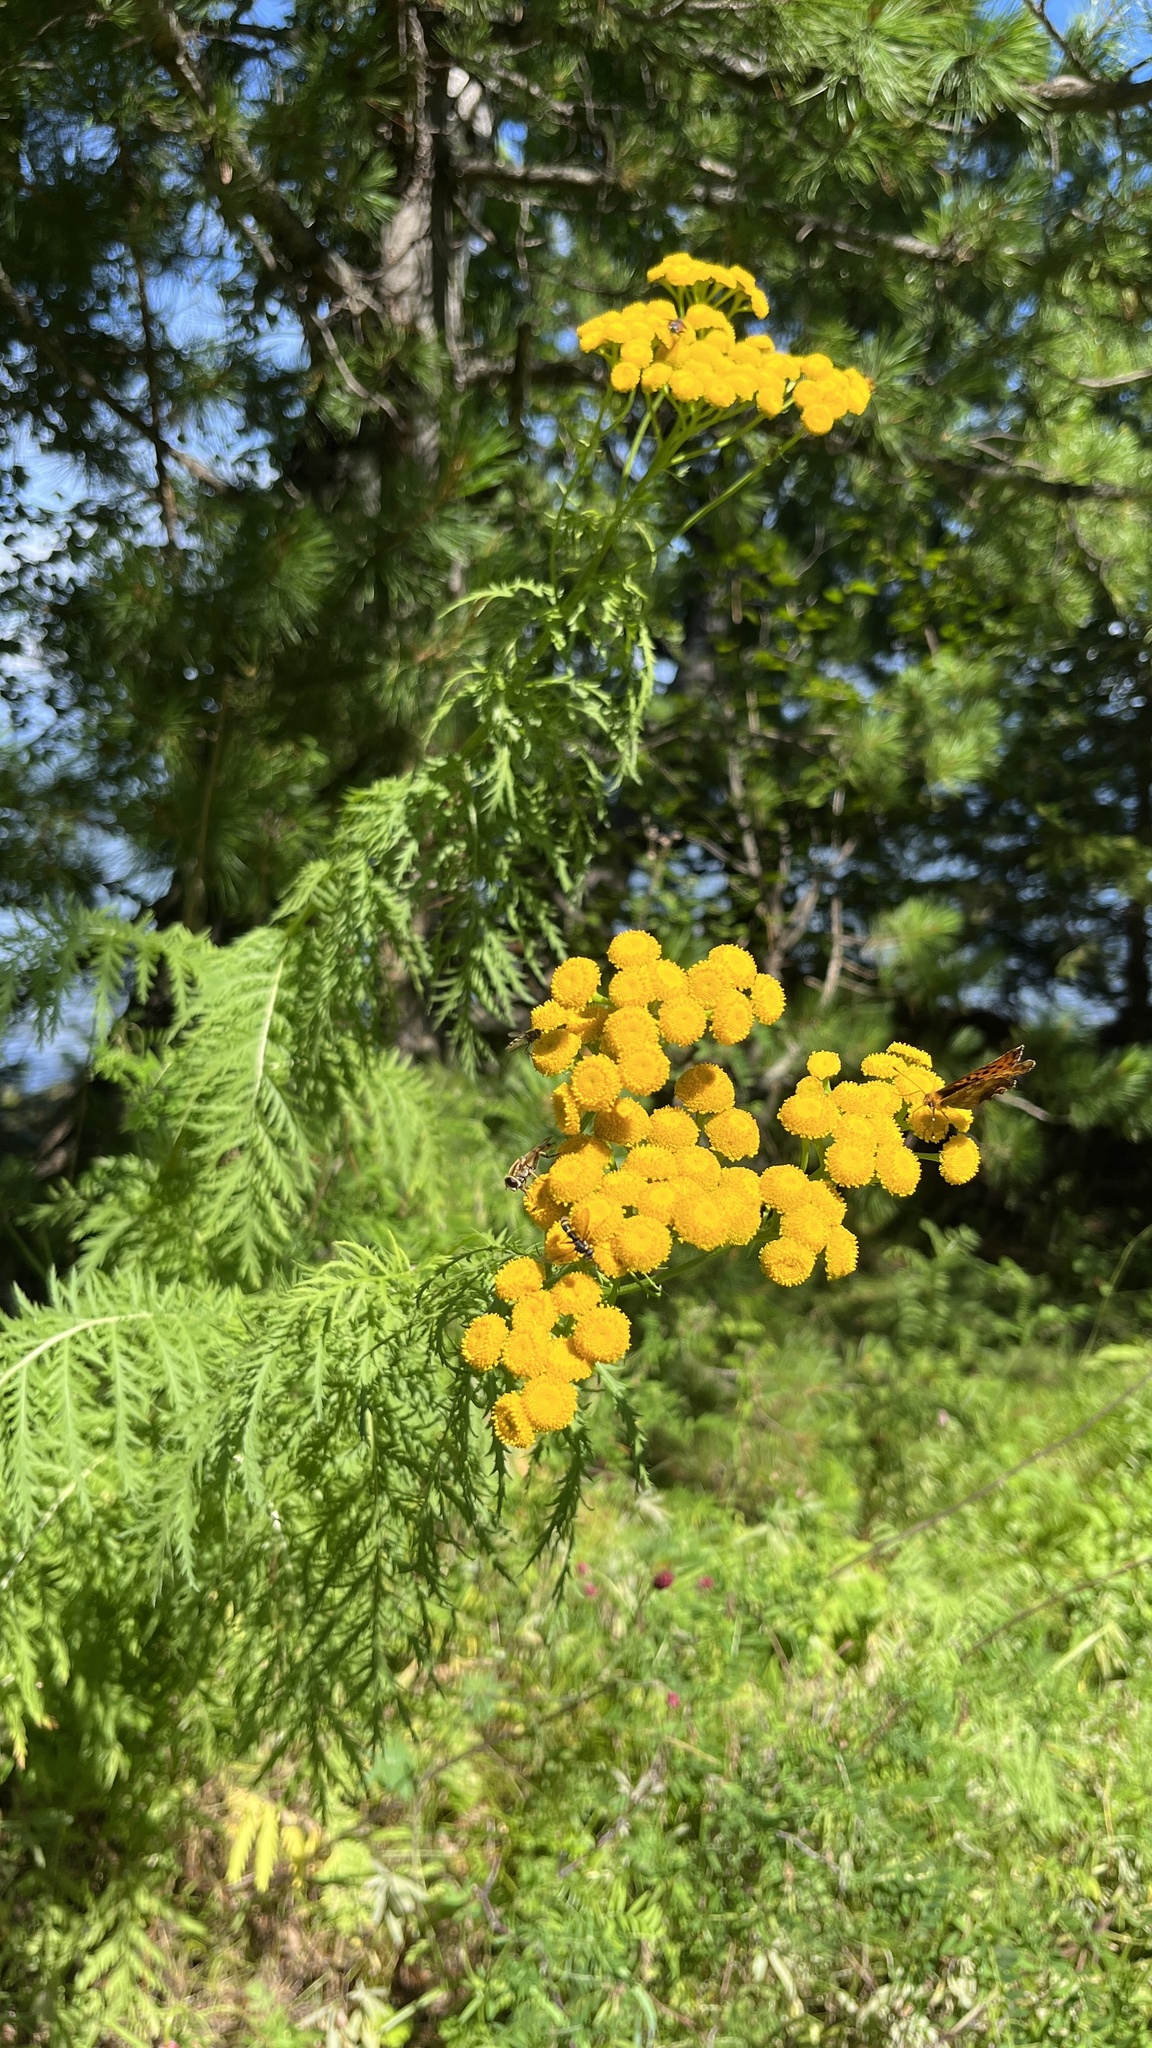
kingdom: Plantae
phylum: Tracheophyta
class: Magnoliopsida
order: Asterales
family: Asteraceae
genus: Tanacetum
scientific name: Tanacetum vulgare
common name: Common tansy
